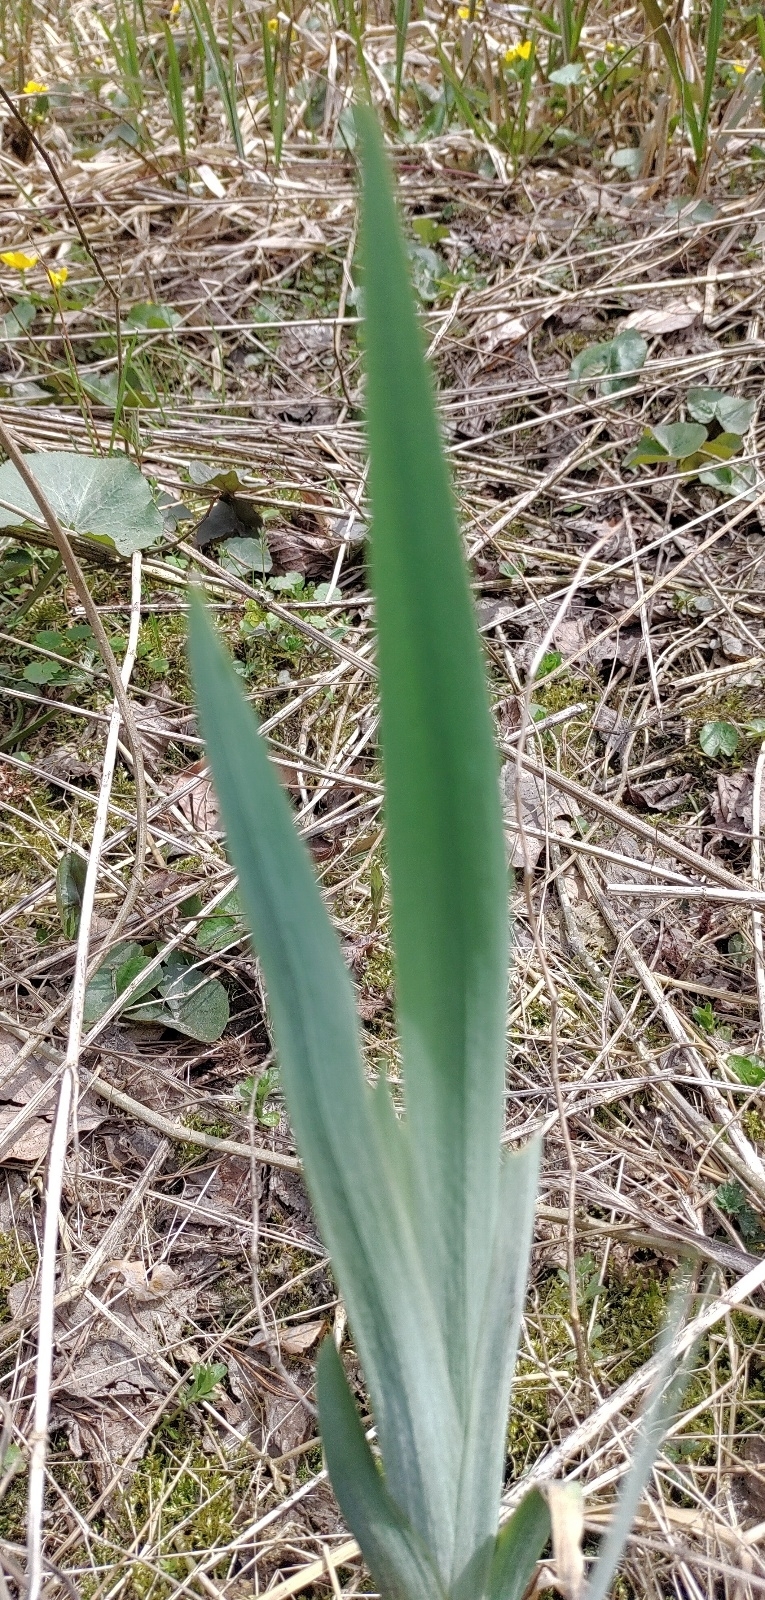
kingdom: Plantae
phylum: Tracheophyta
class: Liliopsida
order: Asparagales
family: Iridaceae
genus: Iris
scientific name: Iris pseudacorus
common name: Yellow flag
